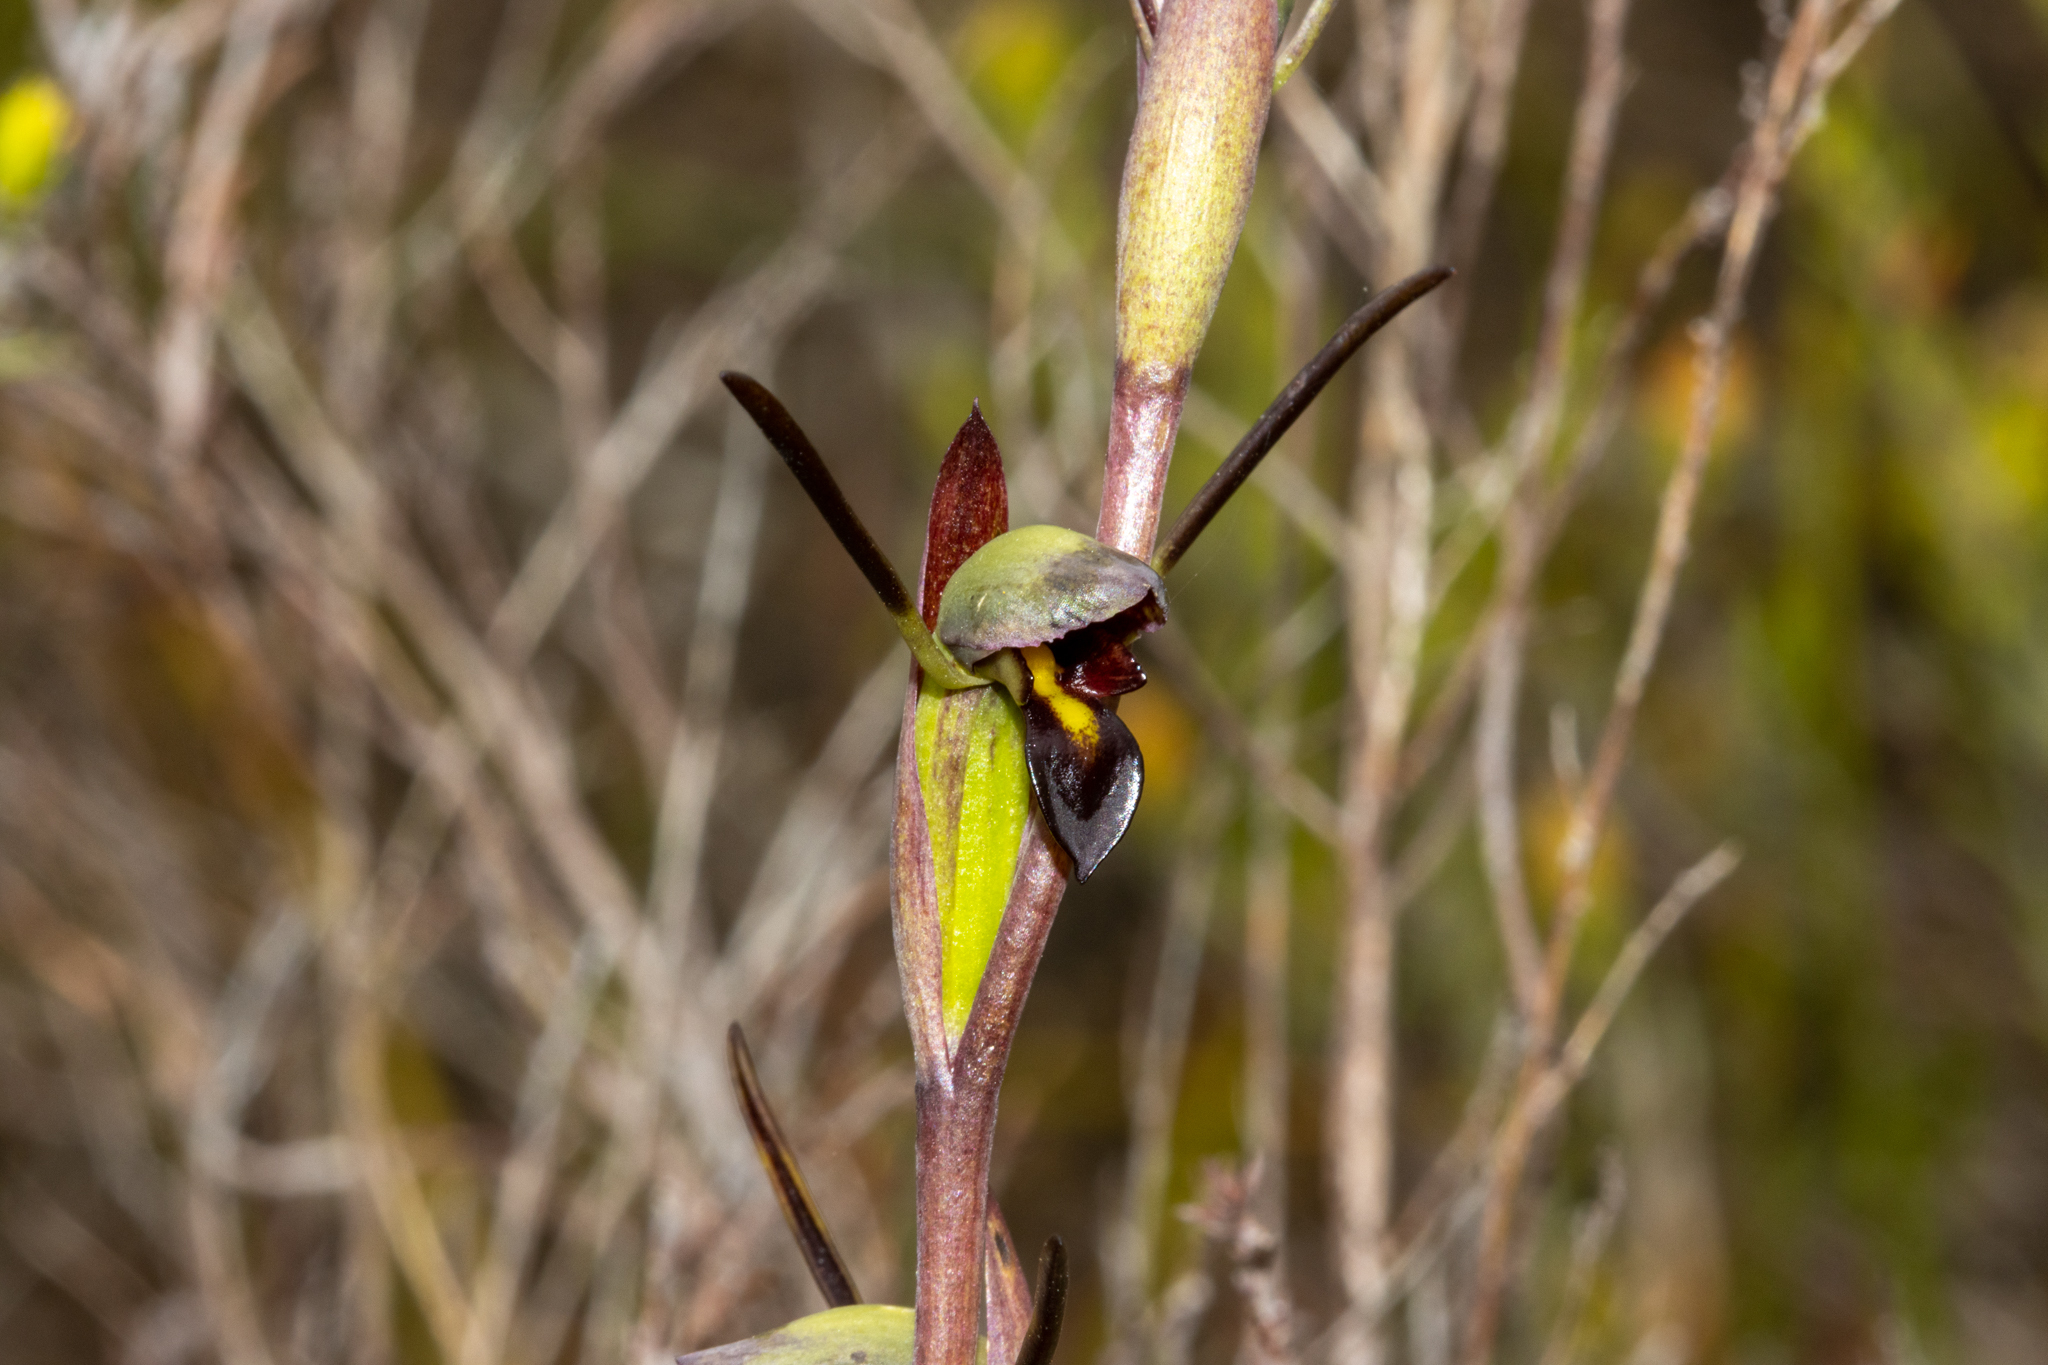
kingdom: Plantae
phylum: Tracheophyta
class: Liliopsida
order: Asparagales
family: Orchidaceae
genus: Orthoceras
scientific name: Orthoceras strictum
